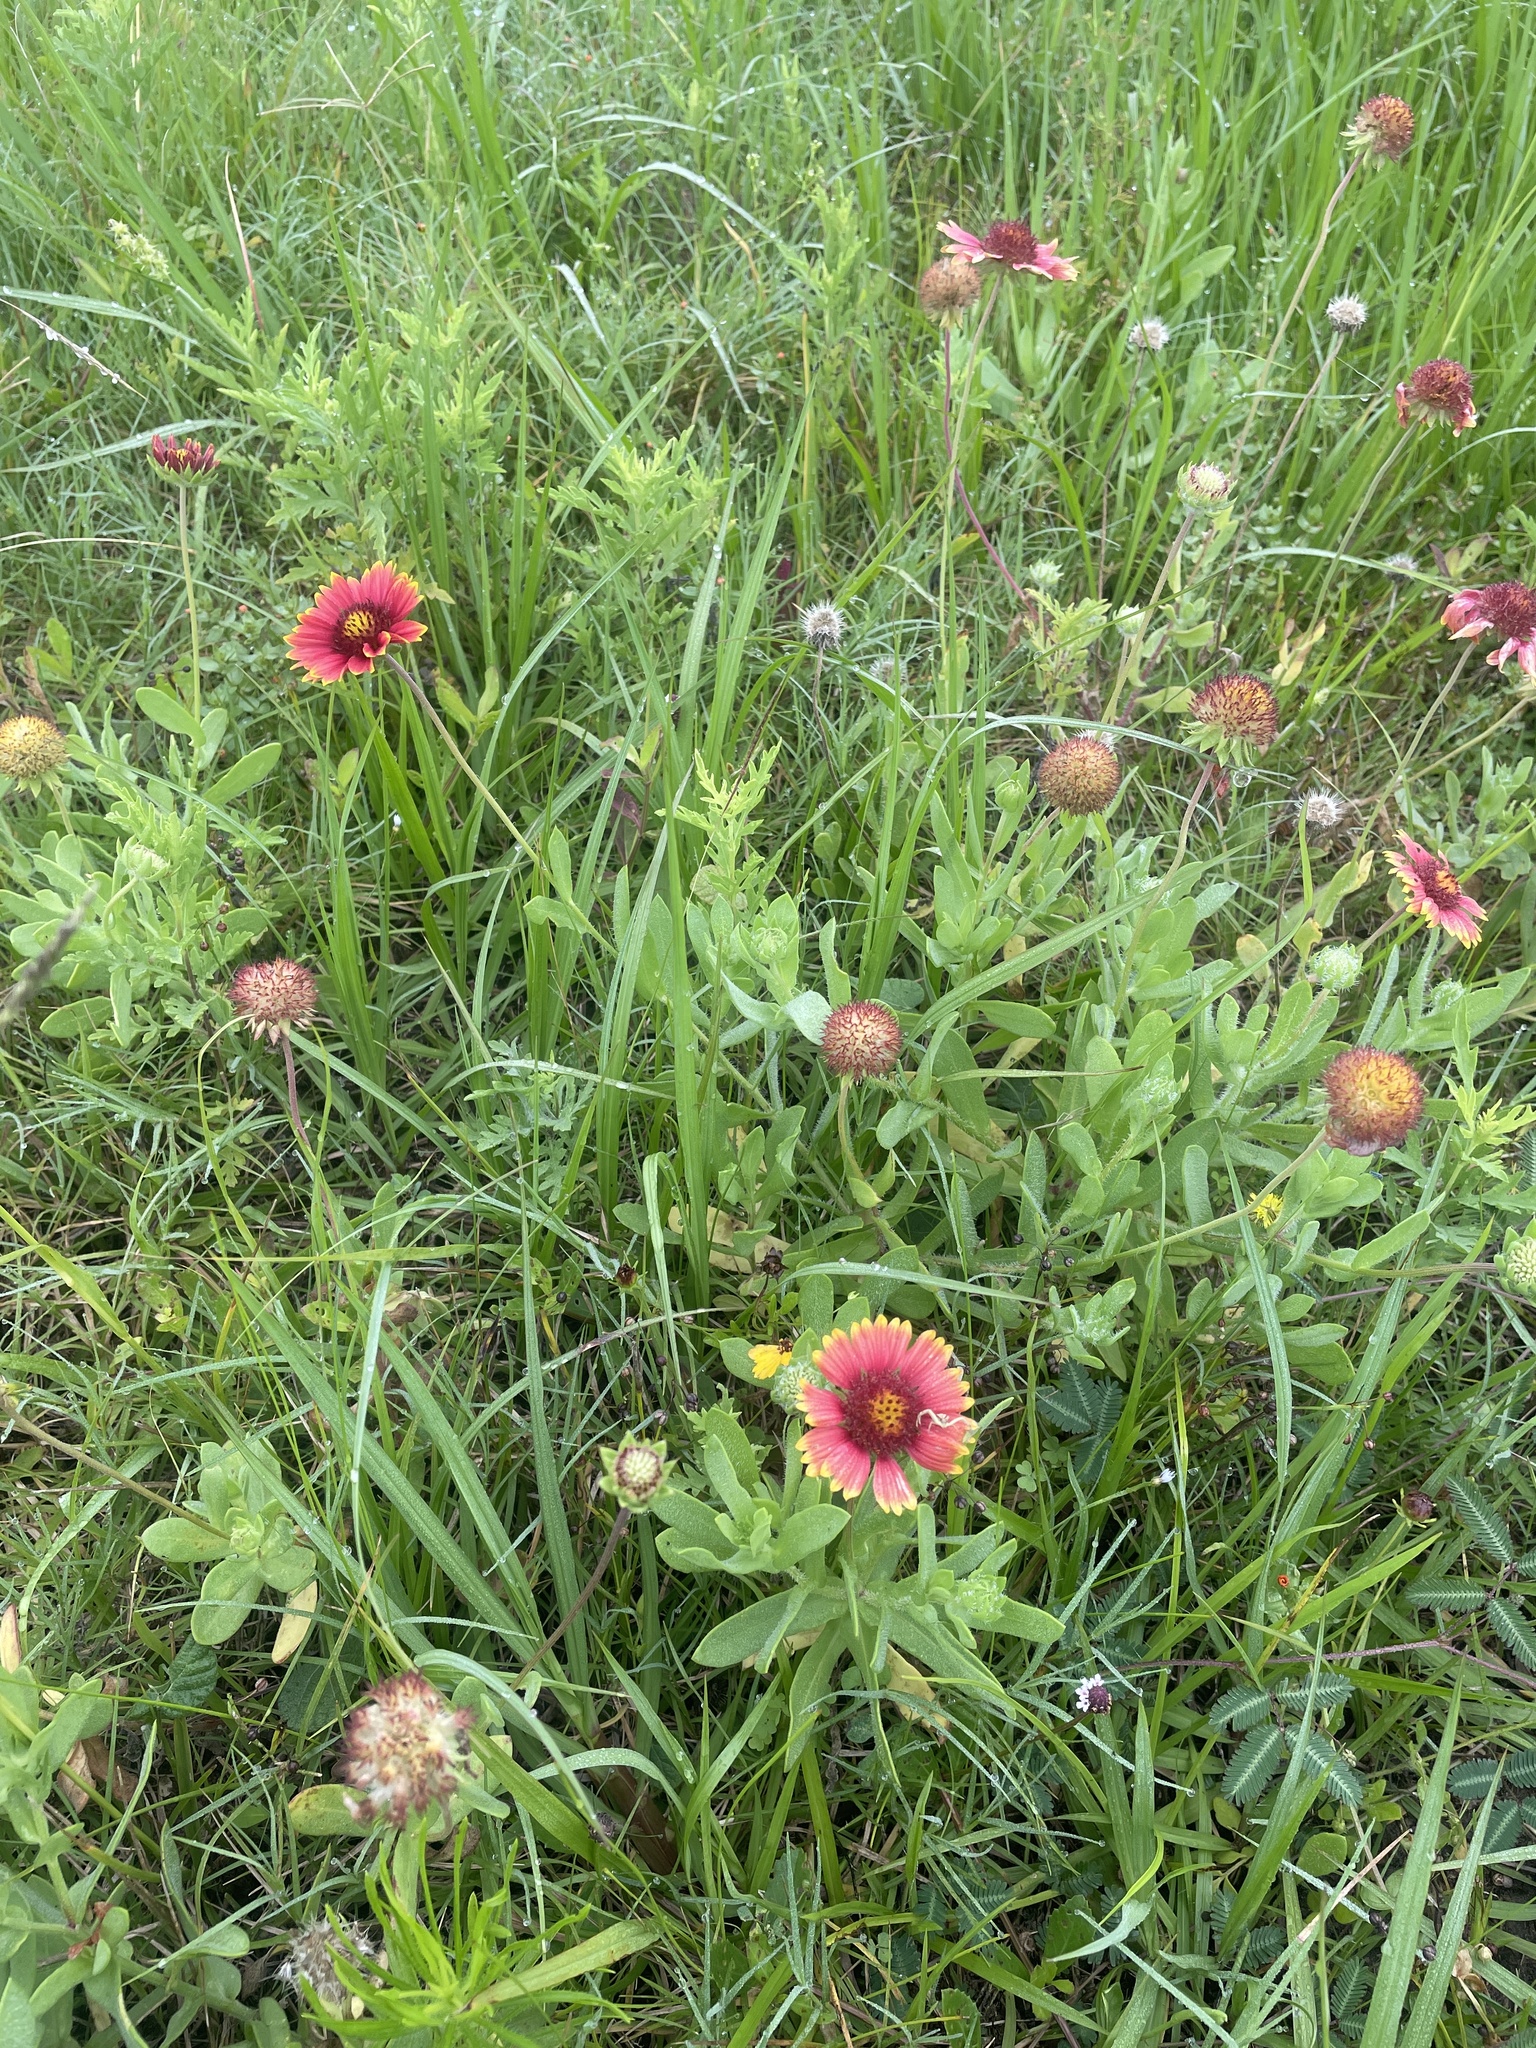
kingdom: Plantae
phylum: Tracheophyta
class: Magnoliopsida
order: Asterales
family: Asteraceae
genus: Gaillardia
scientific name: Gaillardia pulchella
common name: Firewheel
